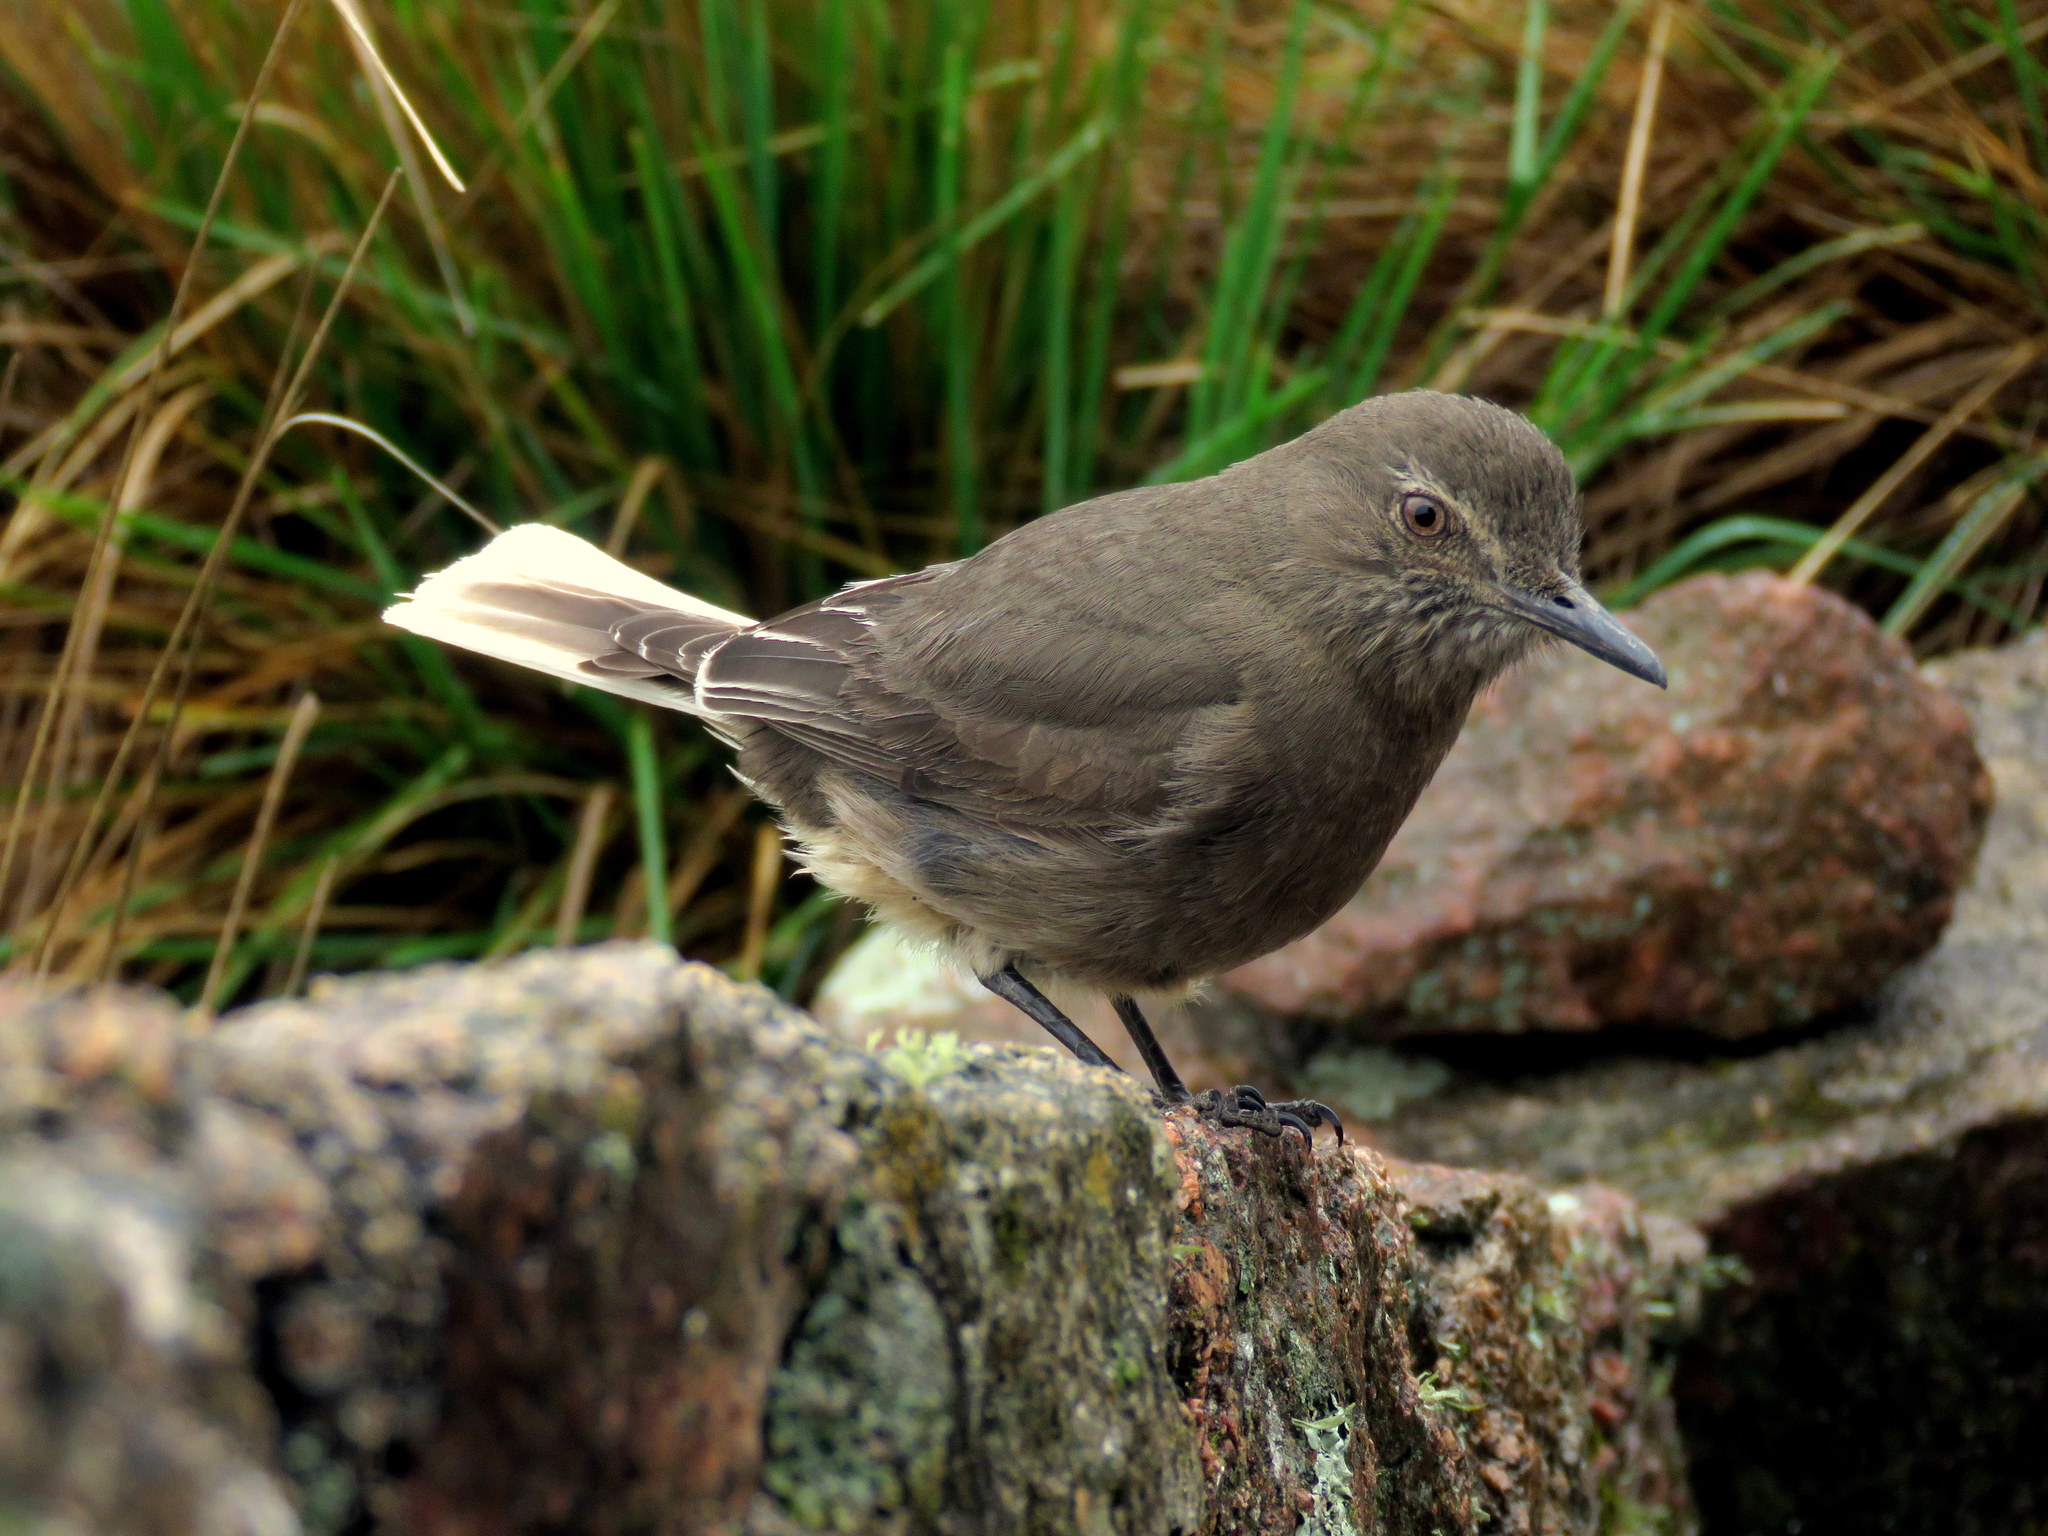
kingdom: Animalia
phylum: Chordata
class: Aves
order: Passeriformes
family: Tyrannidae
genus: Agriornis
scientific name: Agriornis montanus
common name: Black-billed shrike-tyrant
